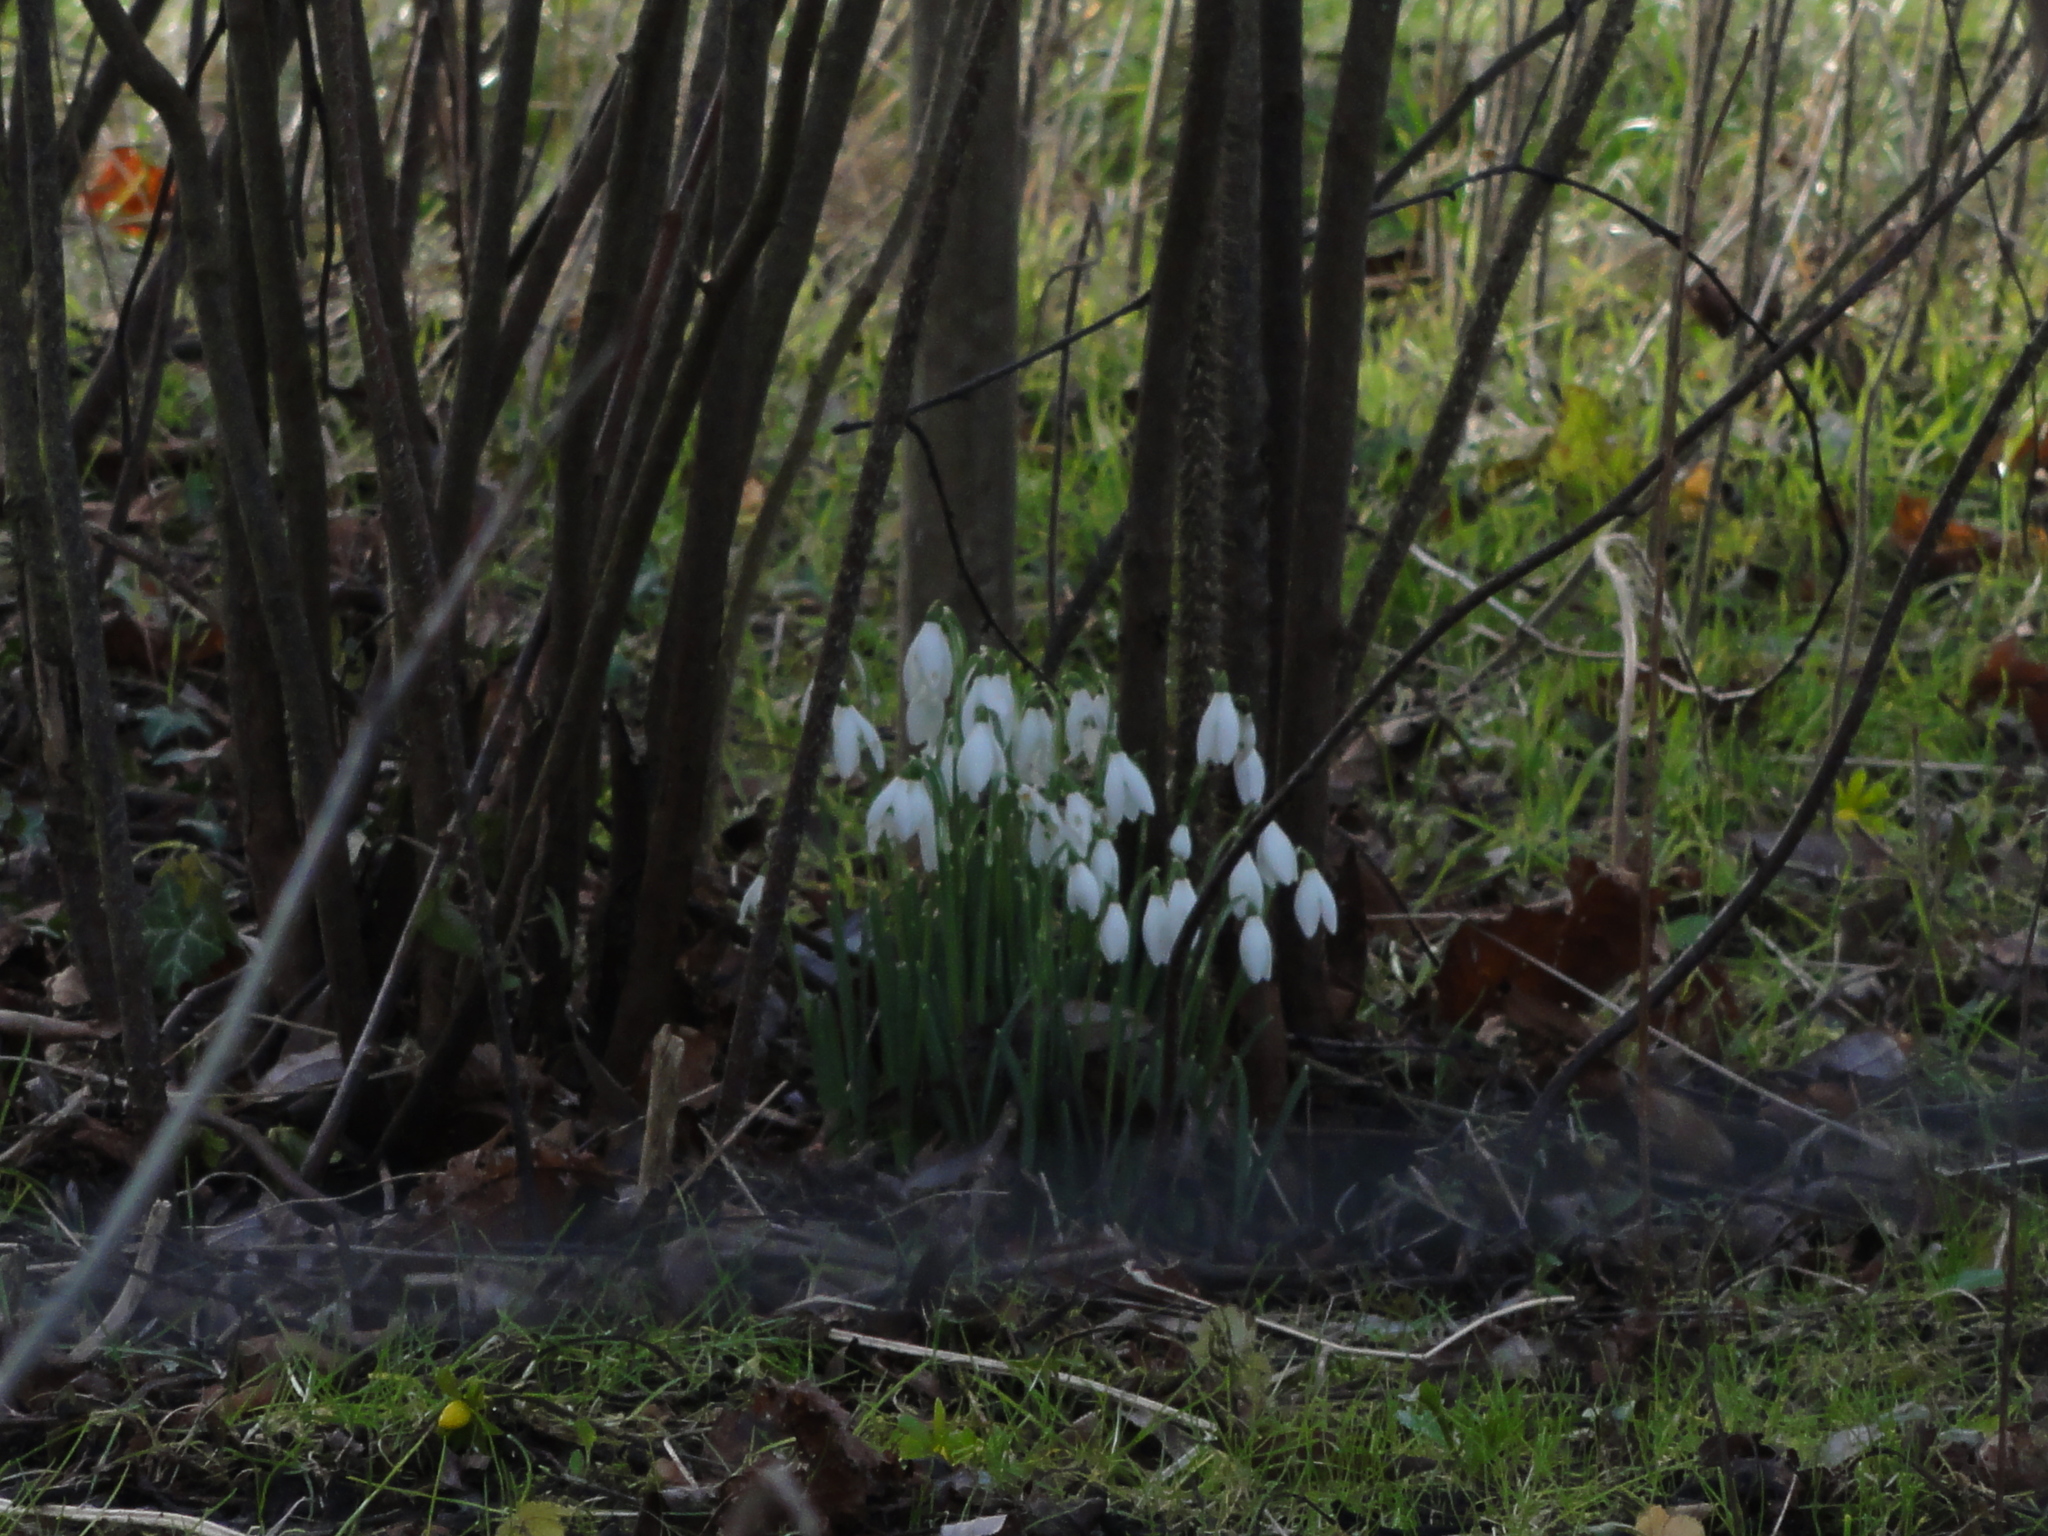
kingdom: Plantae
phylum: Tracheophyta
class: Liliopsida
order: Asparagales
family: Amaryllidaceae
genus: Galanthus
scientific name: Galanthus nivalis
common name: Snowdrop
